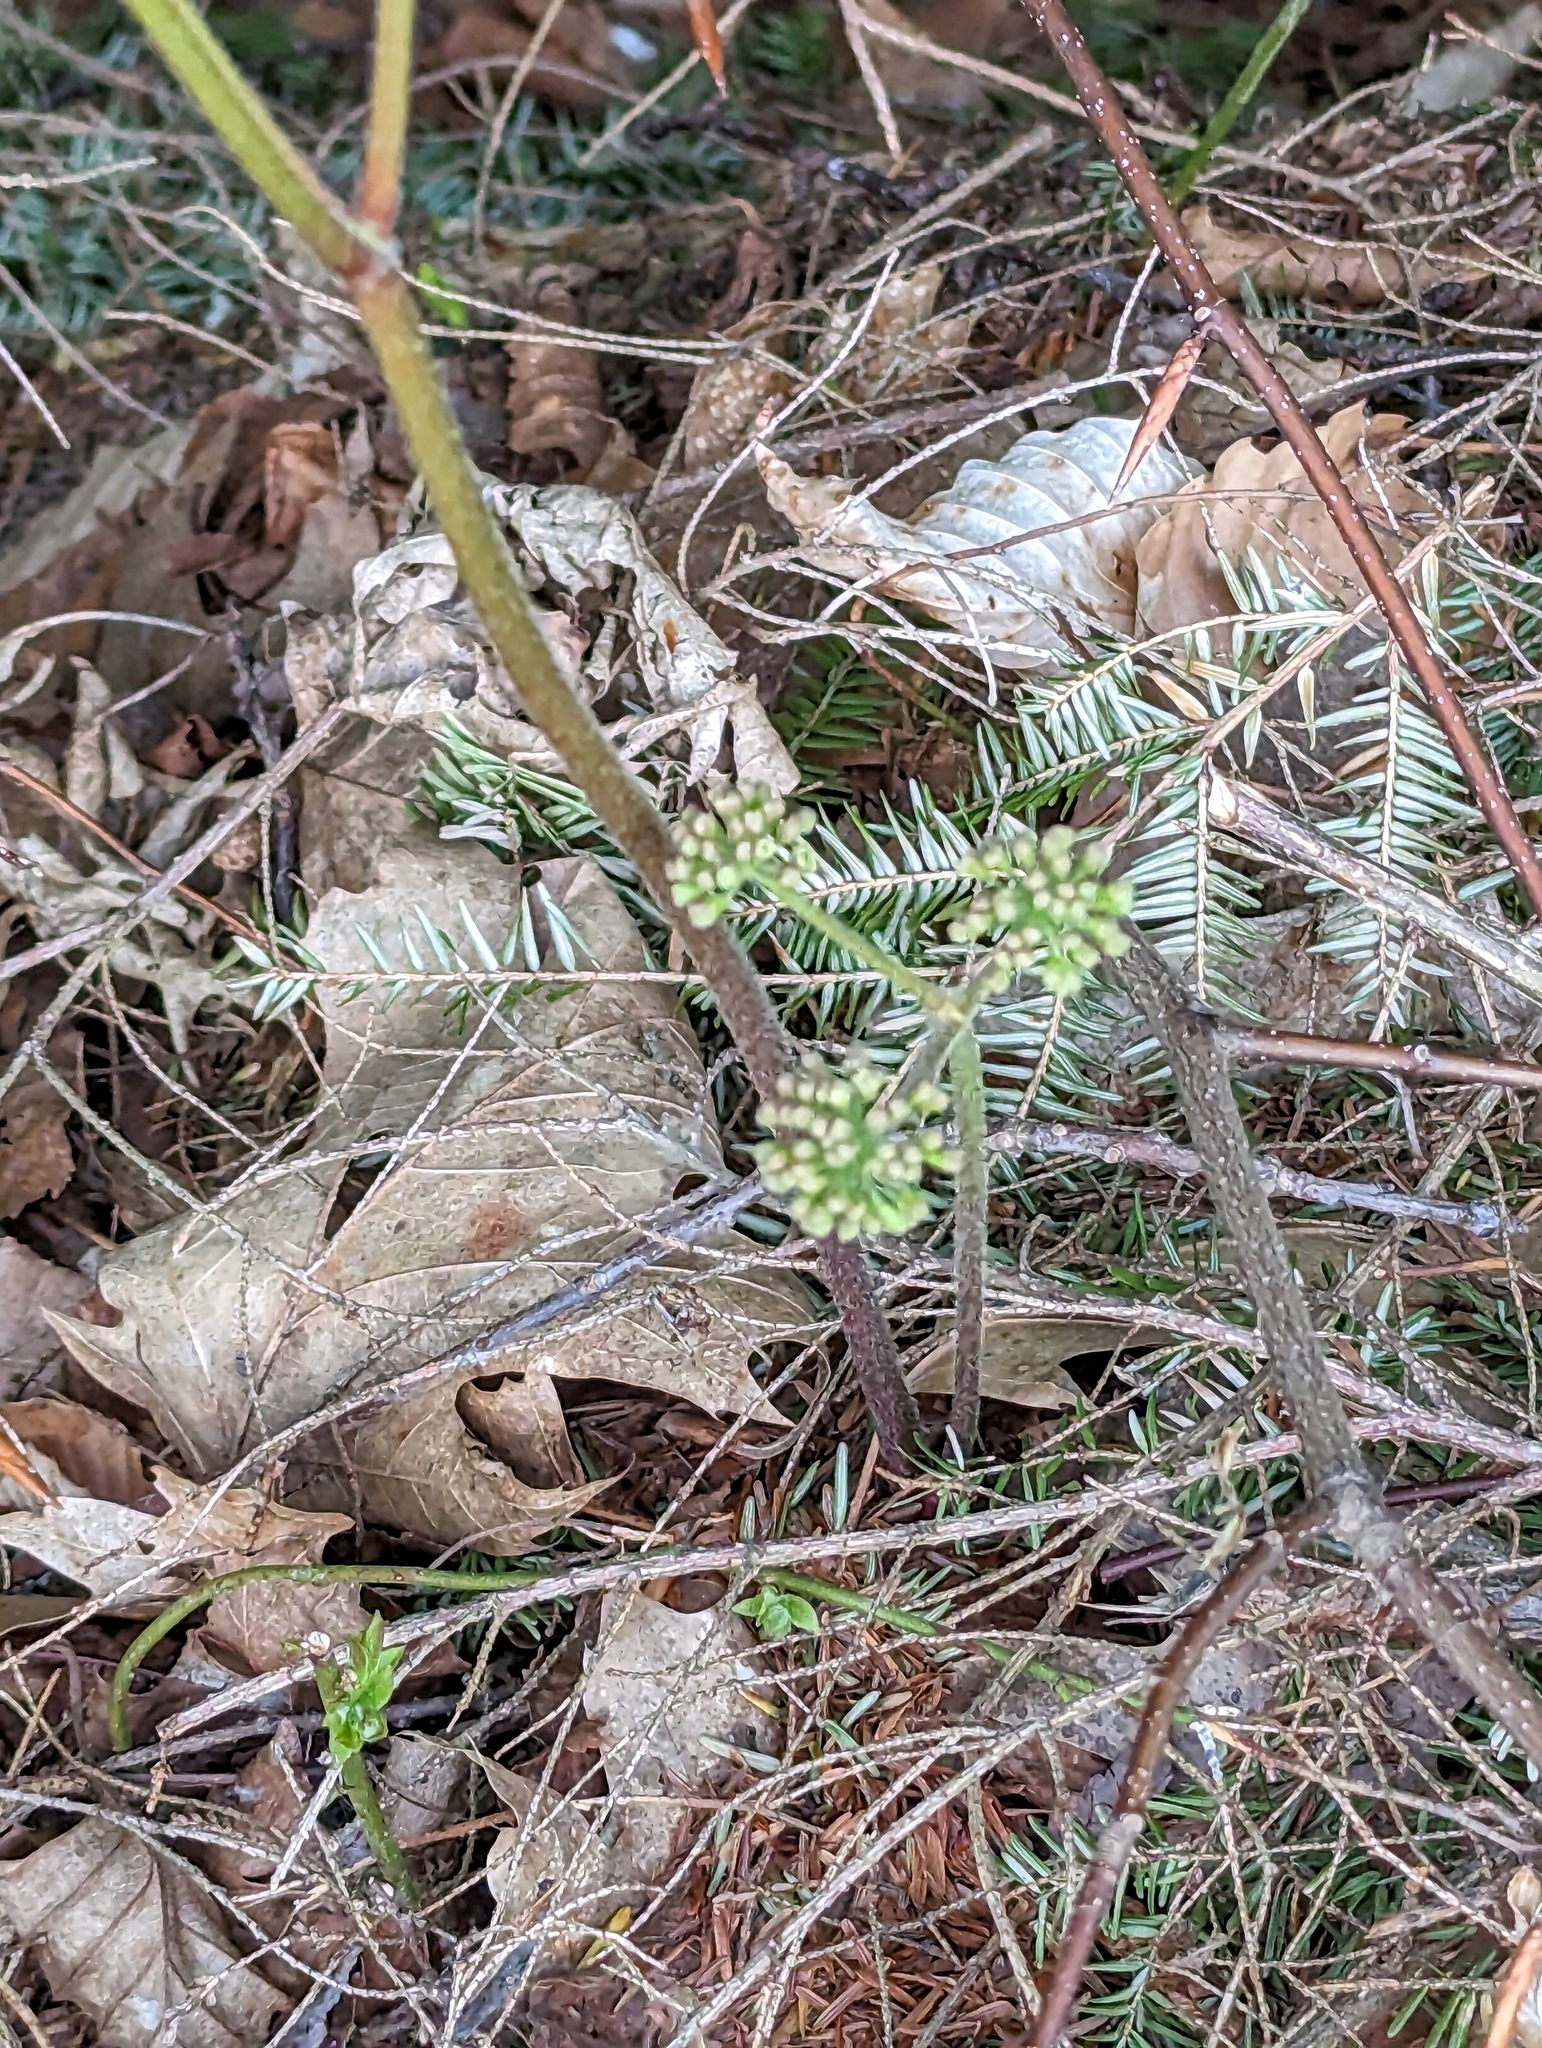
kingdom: Plantae
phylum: Tracheophyta
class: Magnoliopsida
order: Apiales
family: Araliaceae
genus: Aralia
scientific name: Aralia nudicaulis
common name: Wild sarsaparilla
